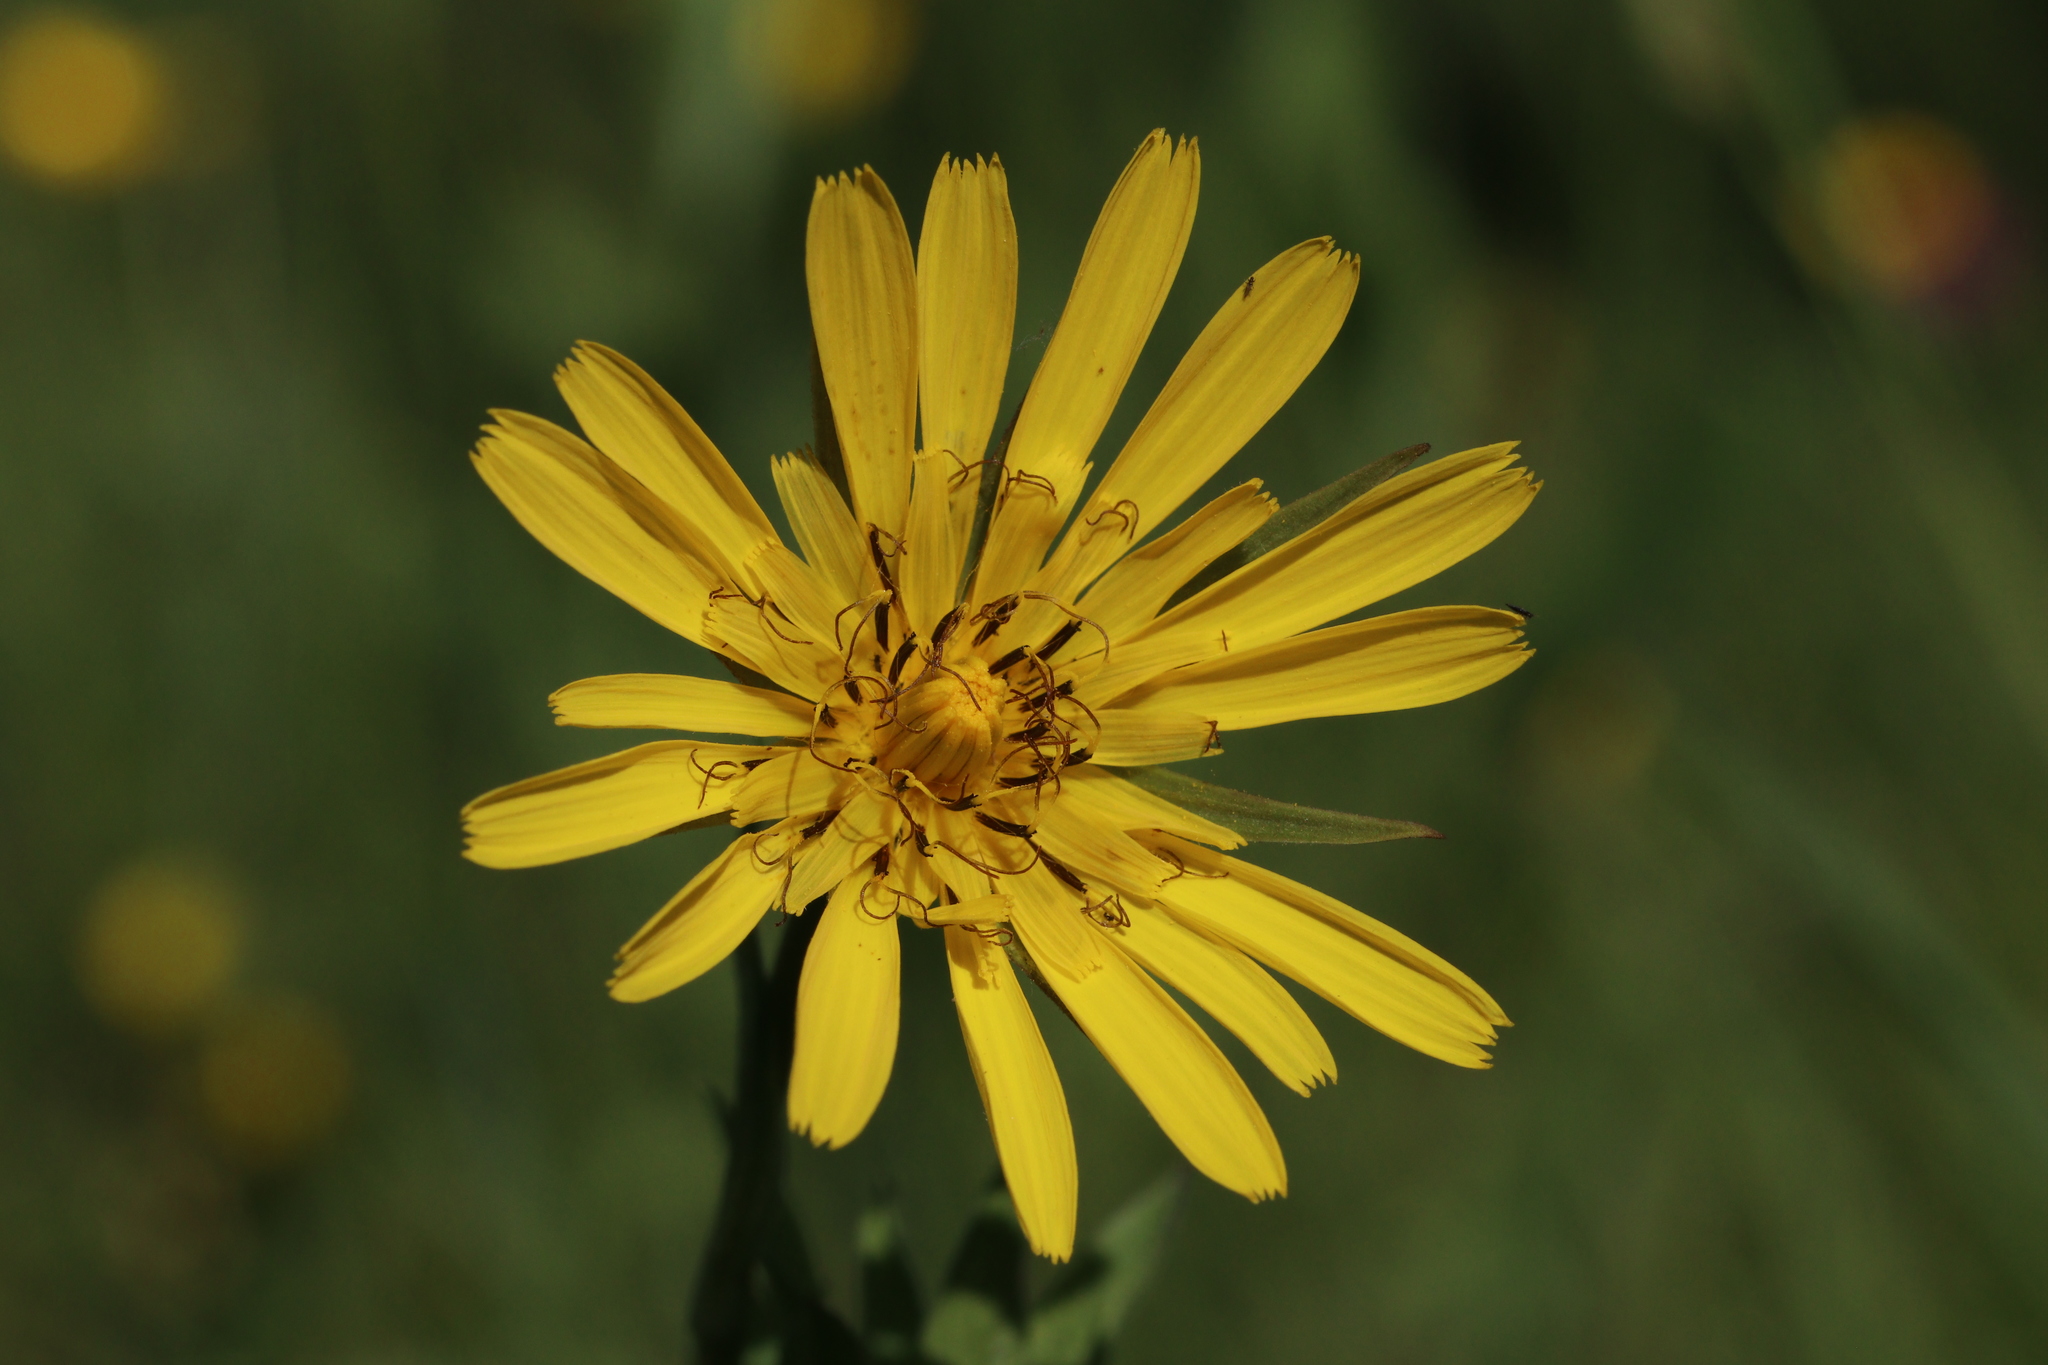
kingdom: Plantae
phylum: Tracheophyta
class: Magnoliopsida
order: Asterales
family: Asteraceae
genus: Tragopogon
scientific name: Tragopogon orientalis
